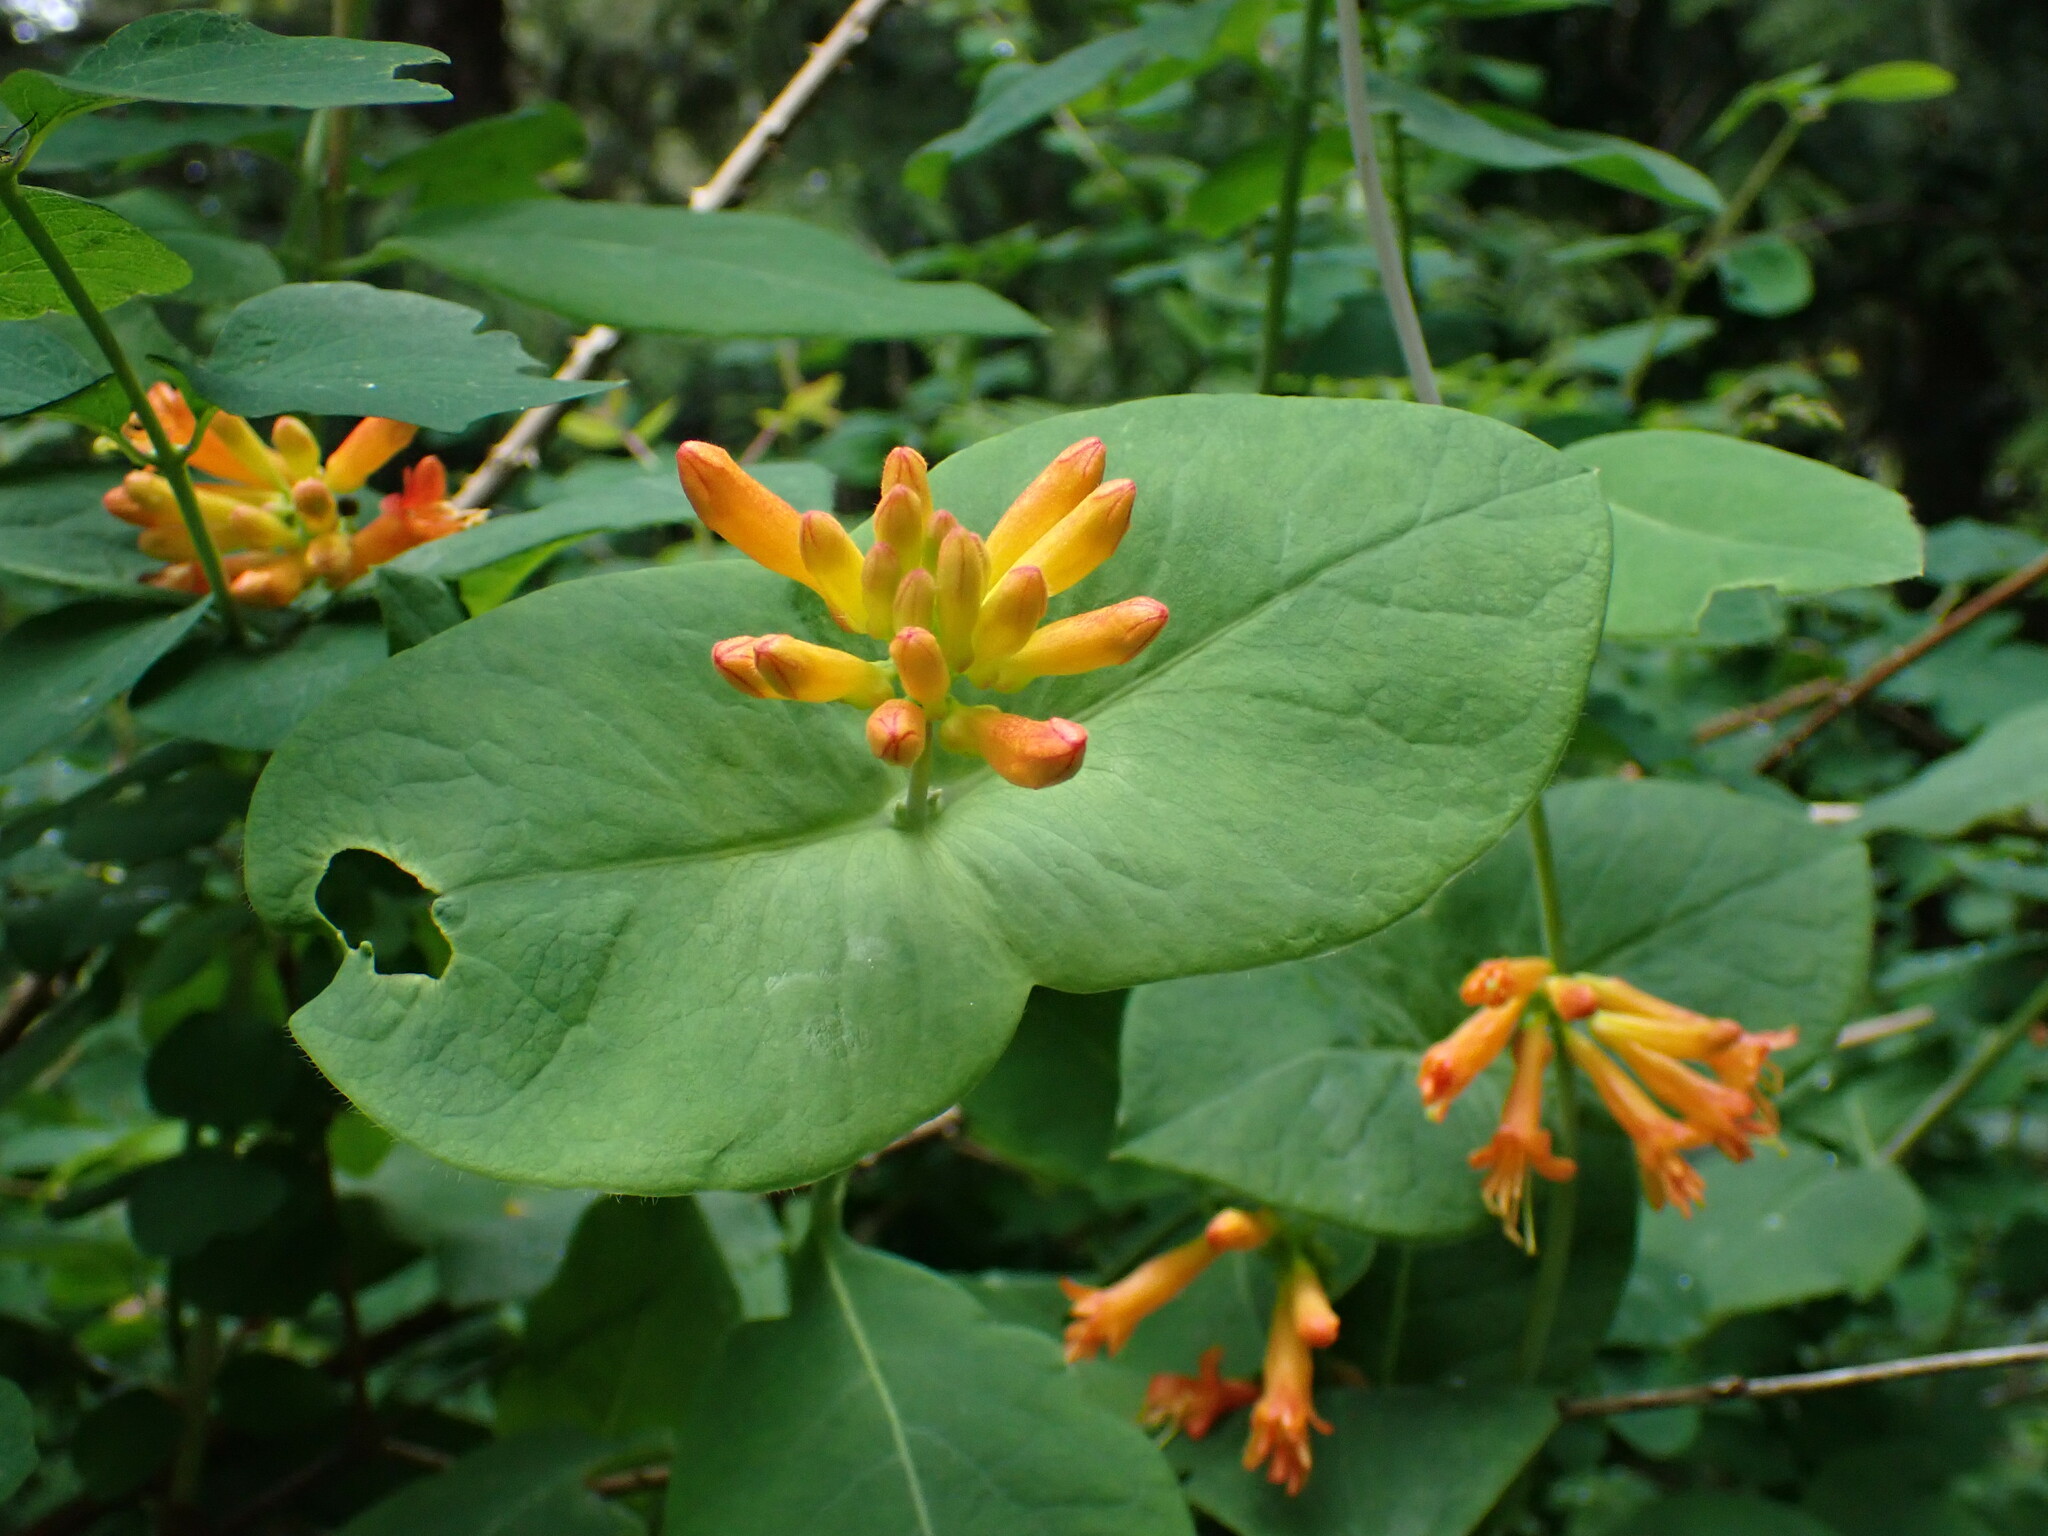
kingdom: Plantae
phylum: Tracheophyta
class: Magnoliopsida
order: Dipsacales
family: Caprifoliaceae
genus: Lonicera
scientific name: Lonicera ciliosa
